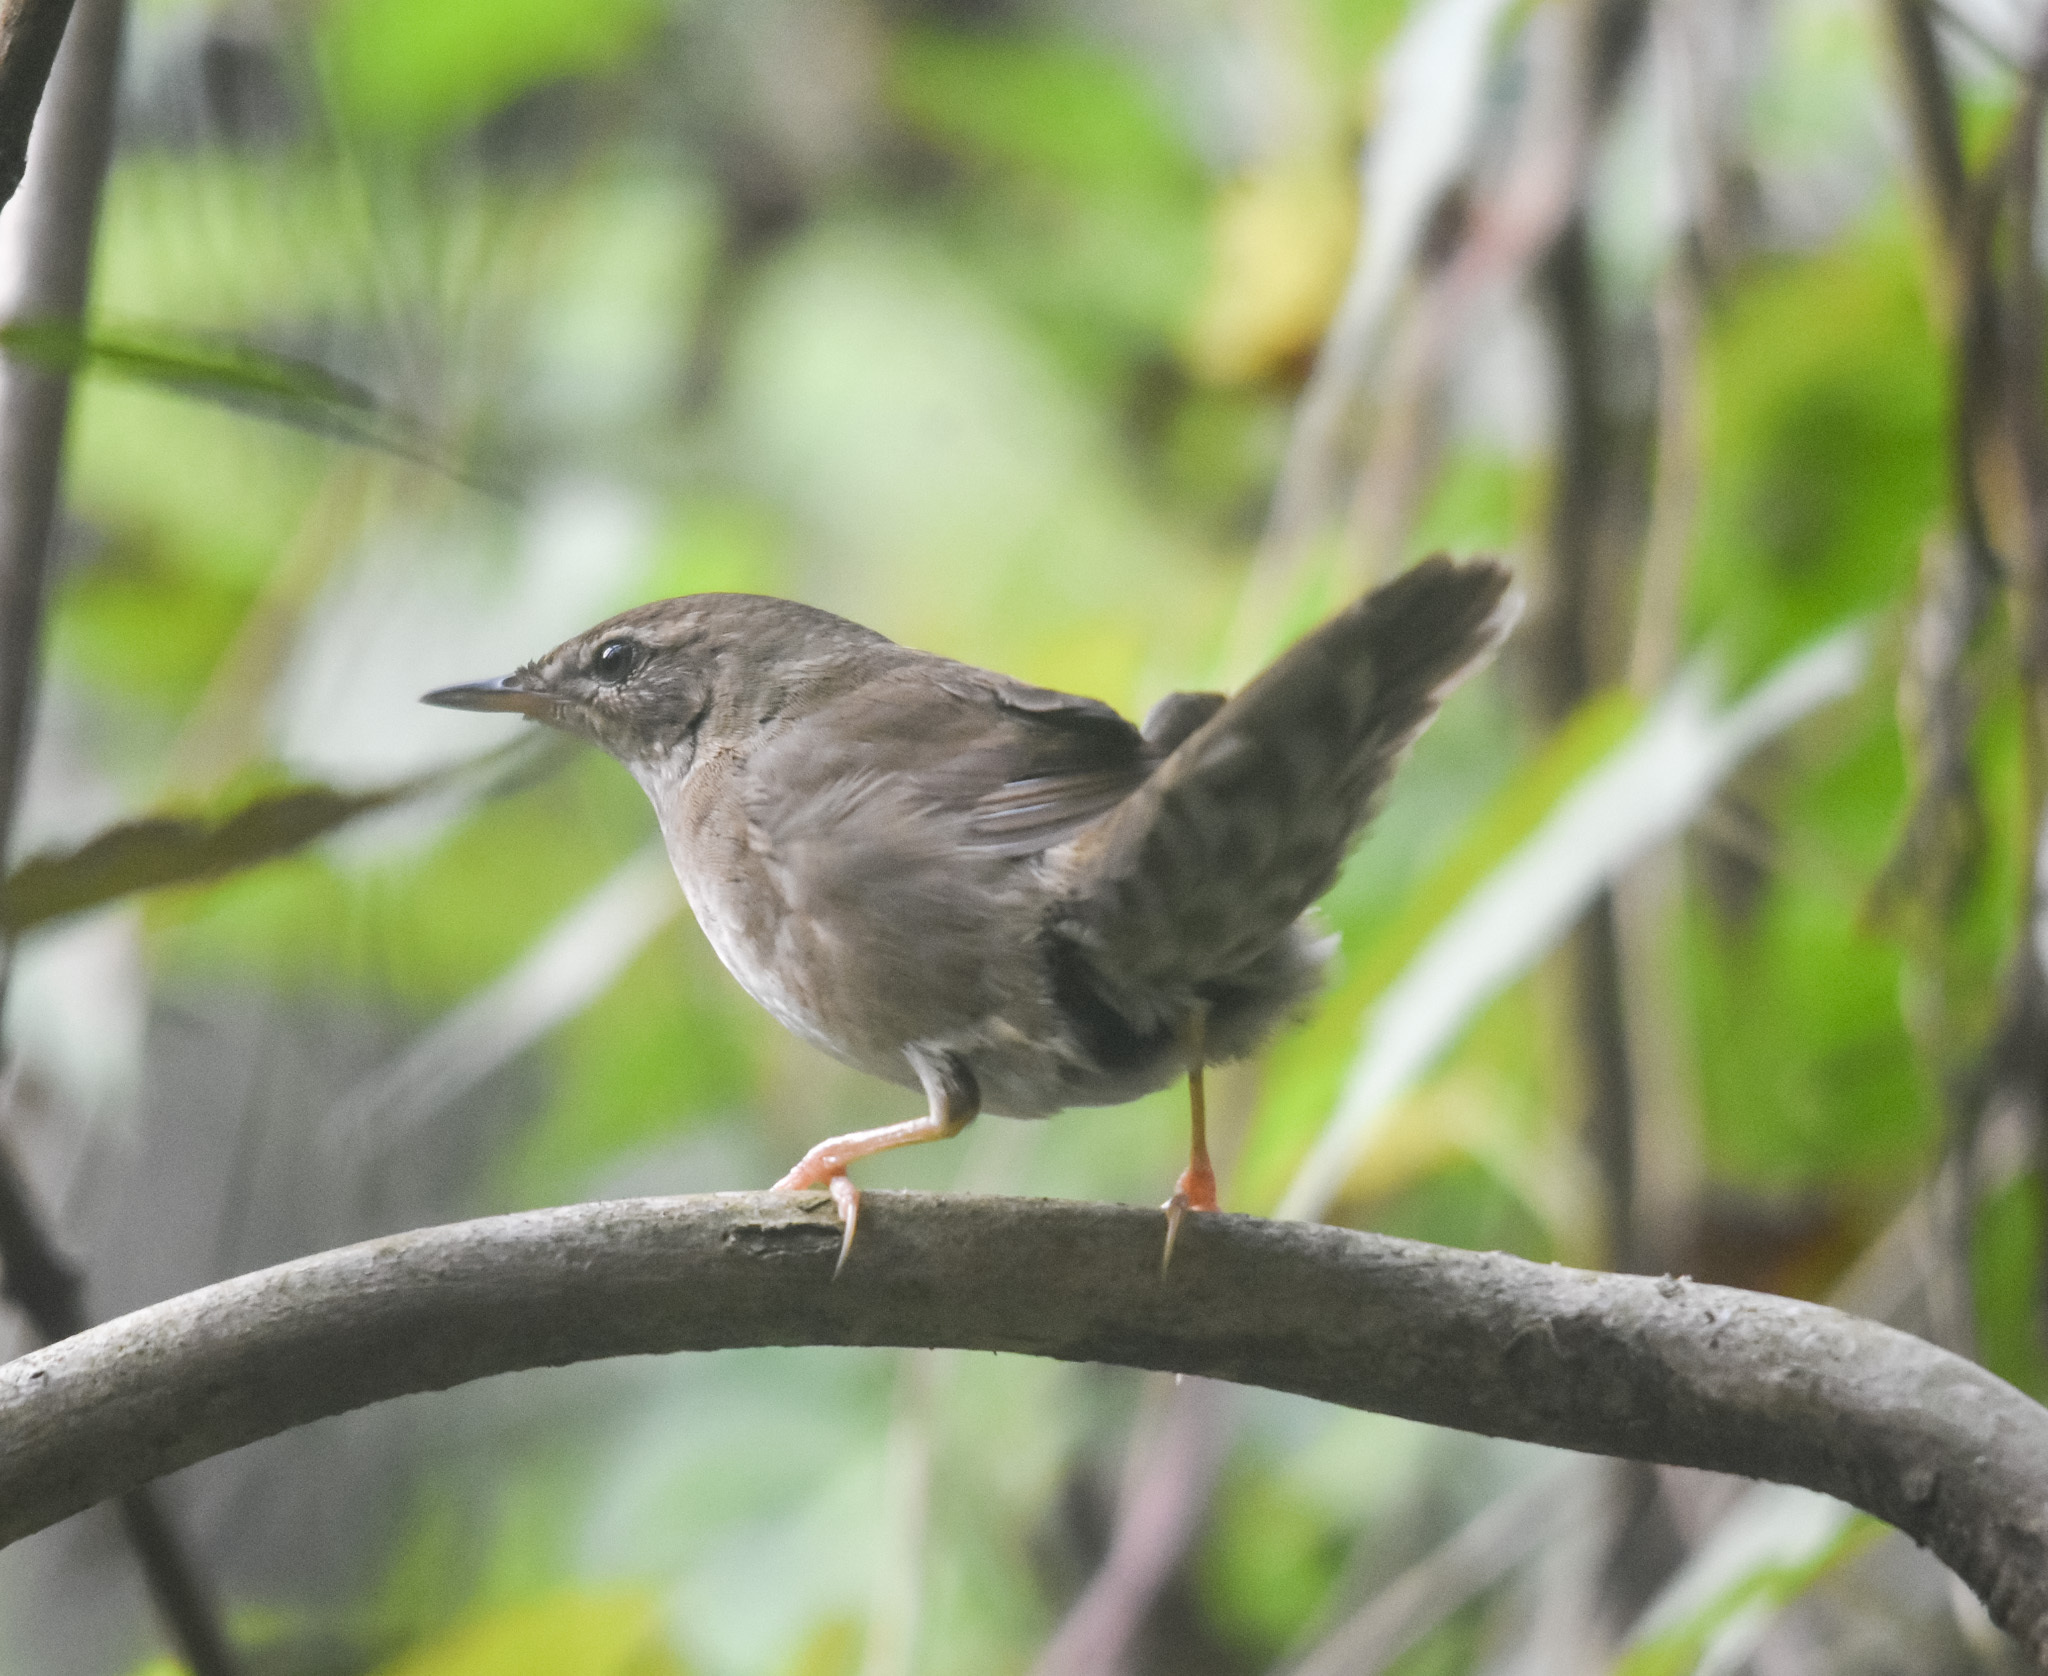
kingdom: Animalia
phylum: Chordata
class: Aves
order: Passeriformes
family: Locustellidae
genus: Locustella
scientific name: Locustella davidi
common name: Baikal bush warbler
